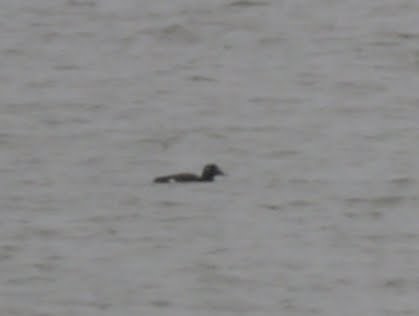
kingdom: Animalia
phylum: Chordata
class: Aves
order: Anseriformes
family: Anatidae
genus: Melanitta
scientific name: Melanitta deglandi
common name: White-winged scoter
